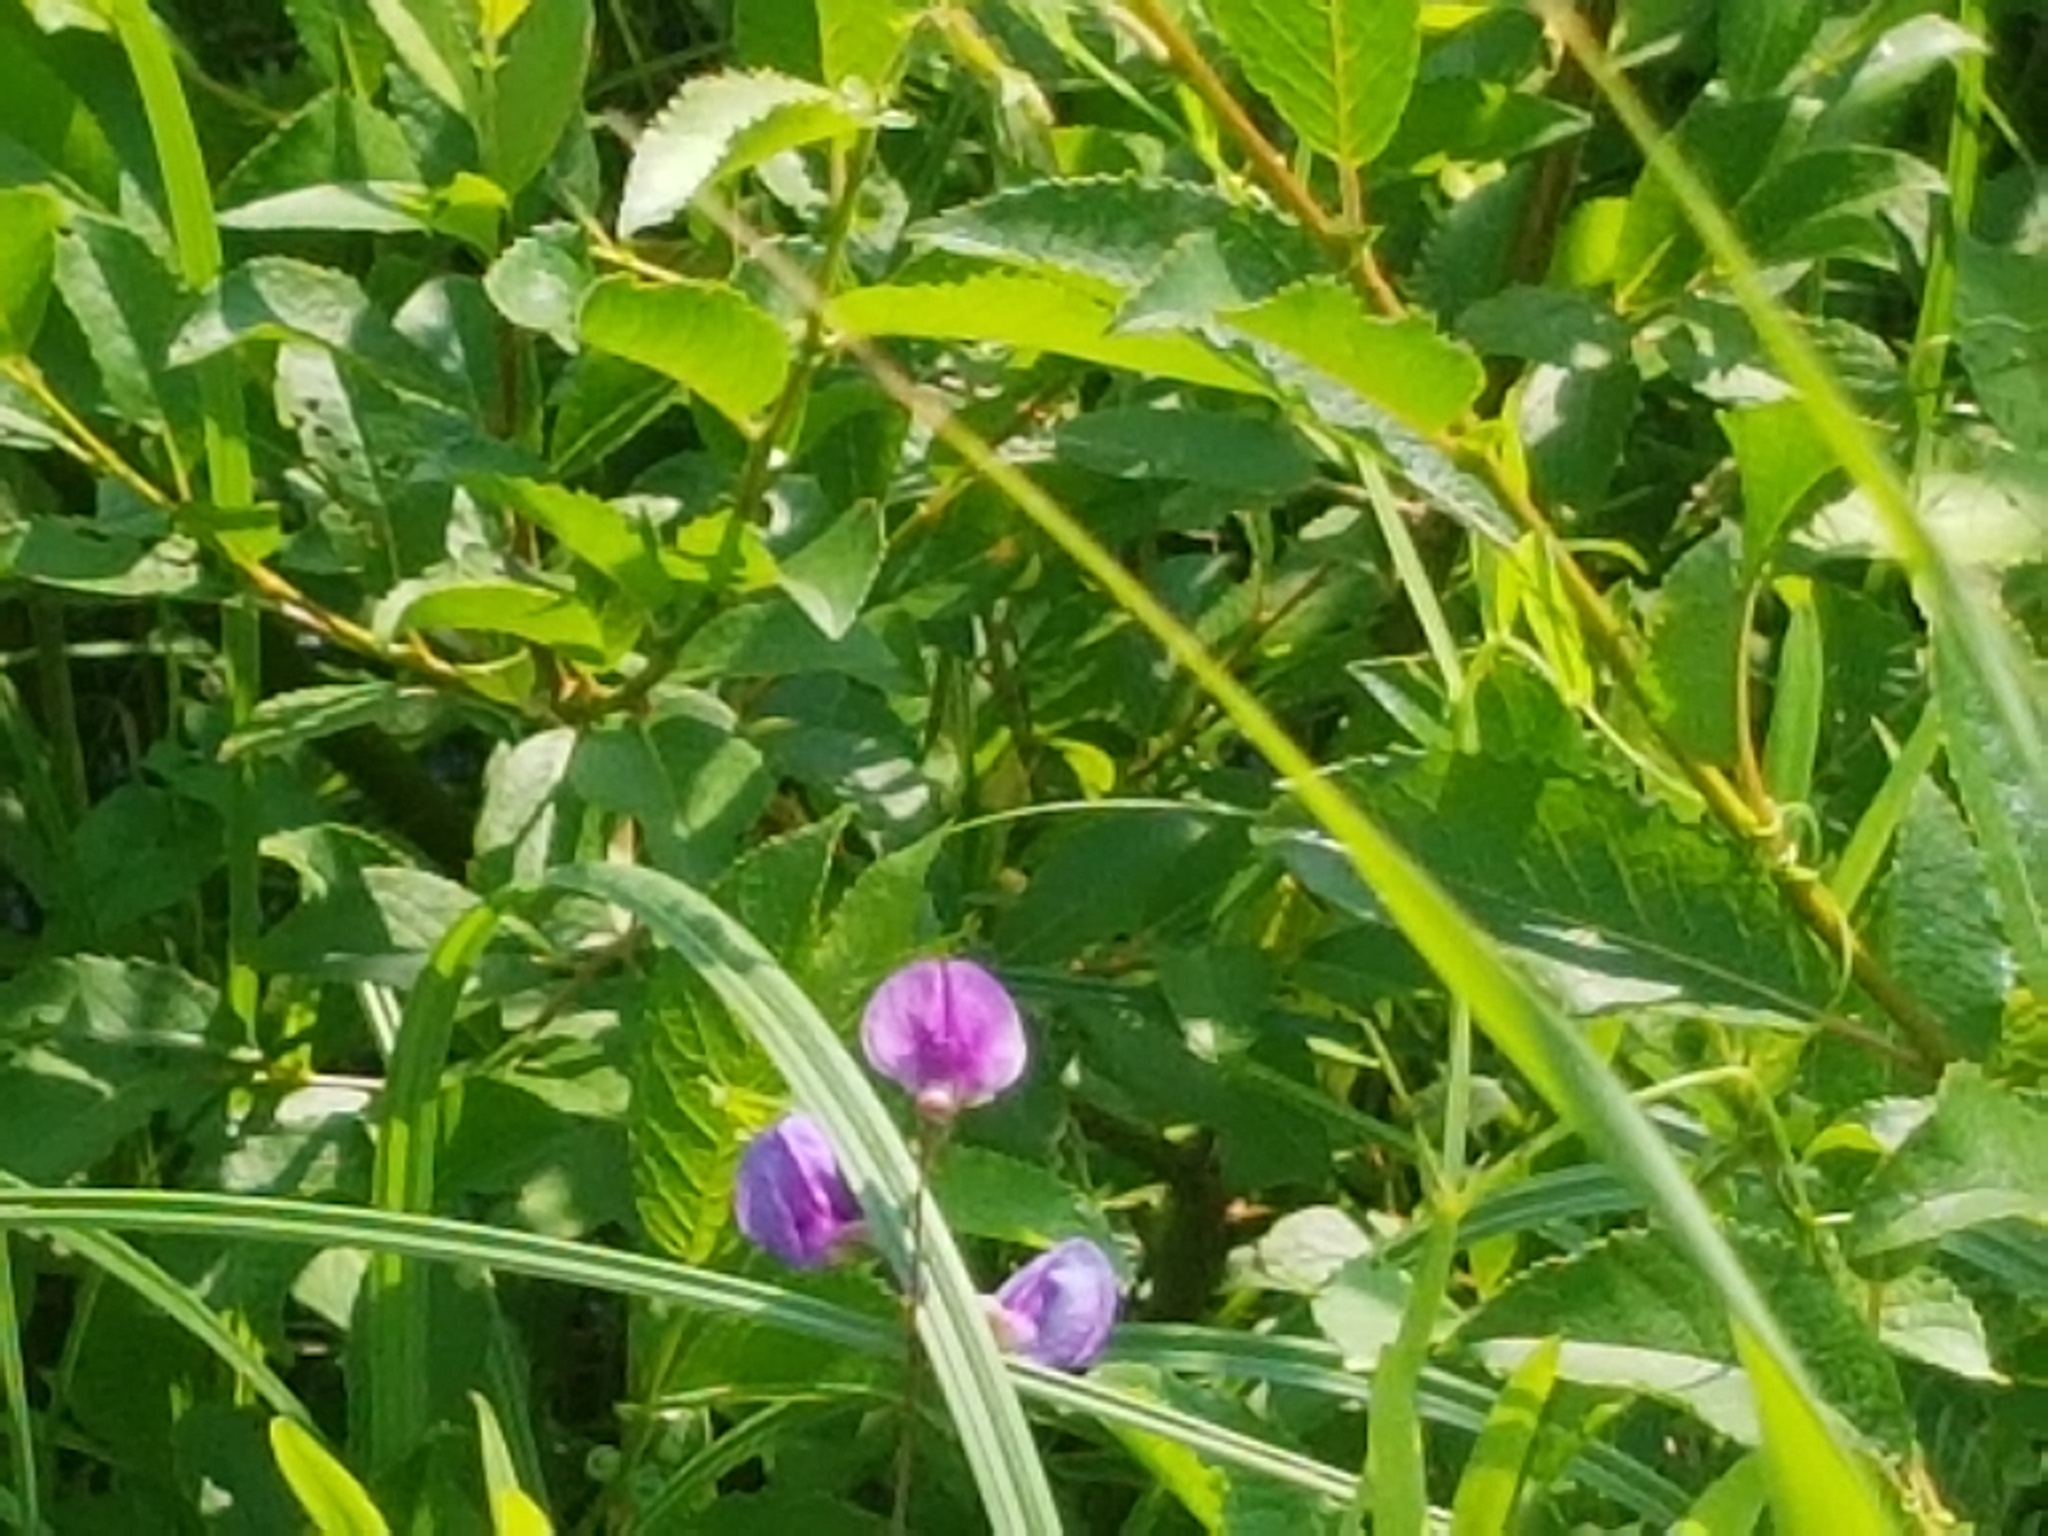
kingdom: Plantae
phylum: Tracheophyta
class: Magnoliopsida
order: Fabales
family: Fabaceae
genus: Lathyrus
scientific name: Lathyrus palustris
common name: Marsh pea
